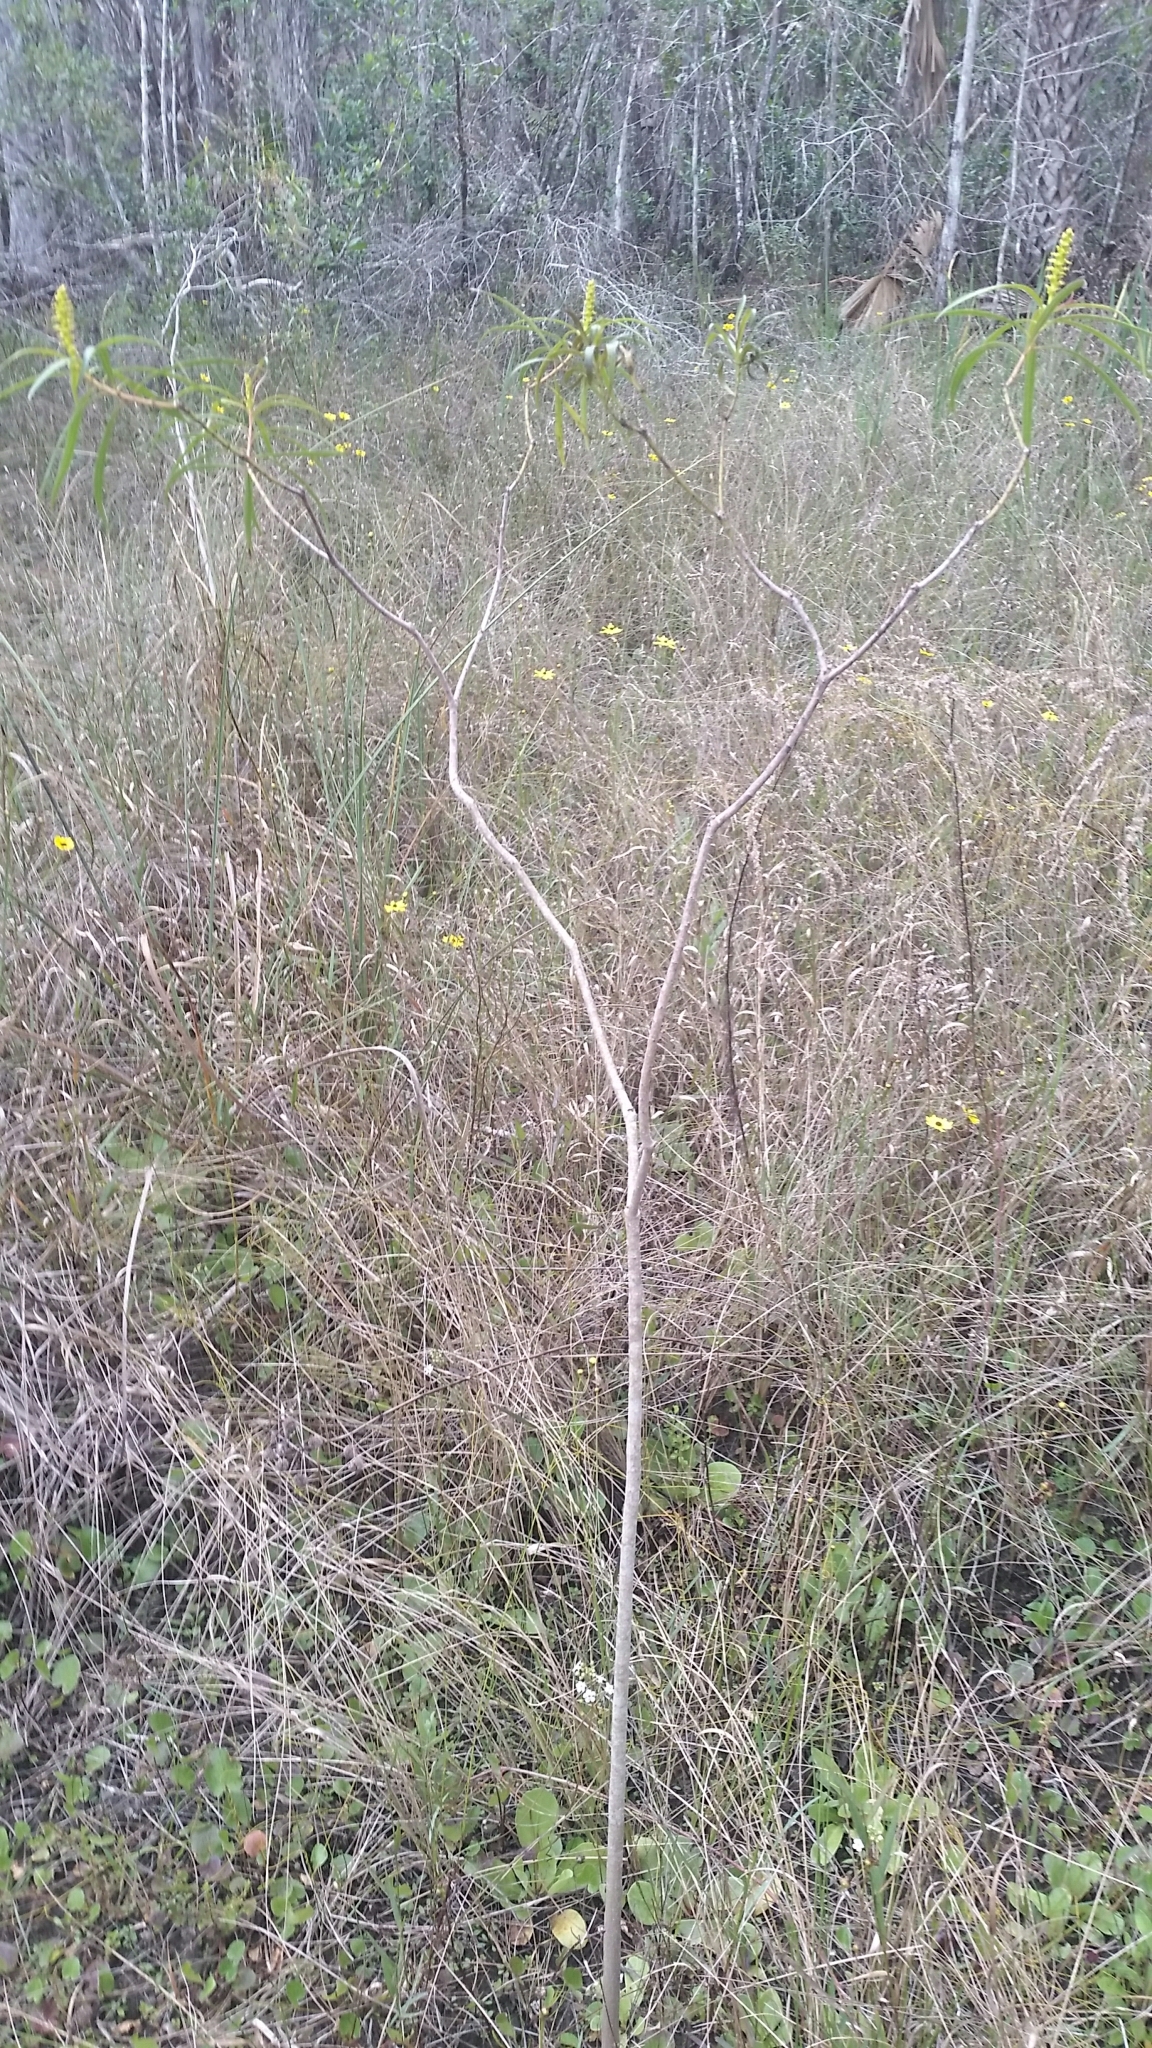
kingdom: Plantae
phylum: Tracheophyta
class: Magnoliopsida
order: Malpighiales
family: Euphorbiaceae
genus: Stillingia
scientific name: Stillingia aquatica
